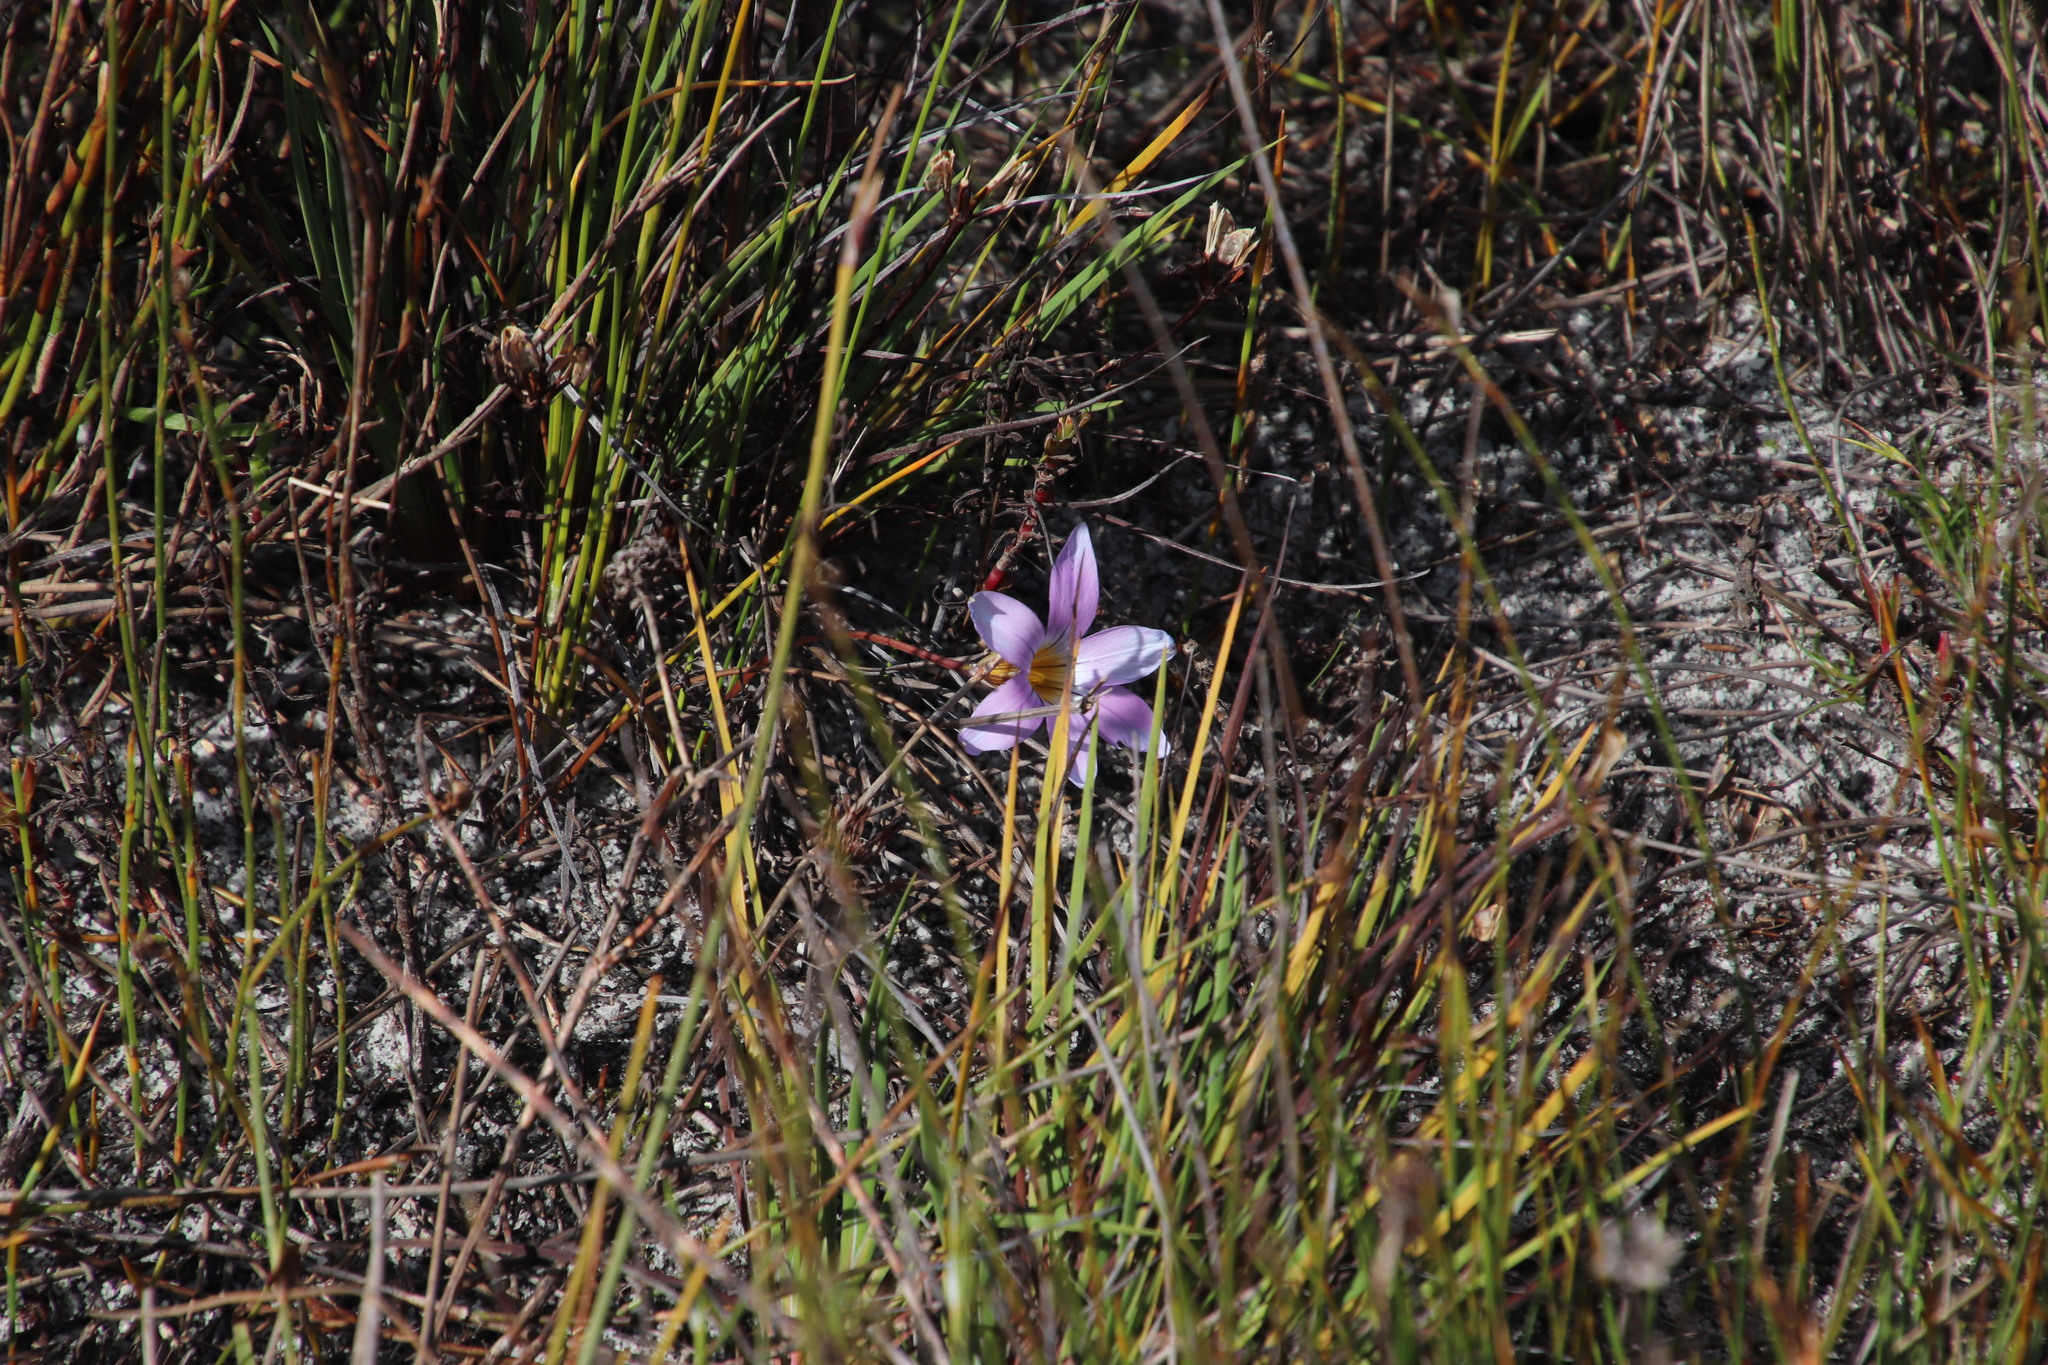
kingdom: Plantae
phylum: Tracheophyta
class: Liliopsida
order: Asparagales
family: Iridaceae
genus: Romulea
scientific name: Romulea rosea
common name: Oniongrass
